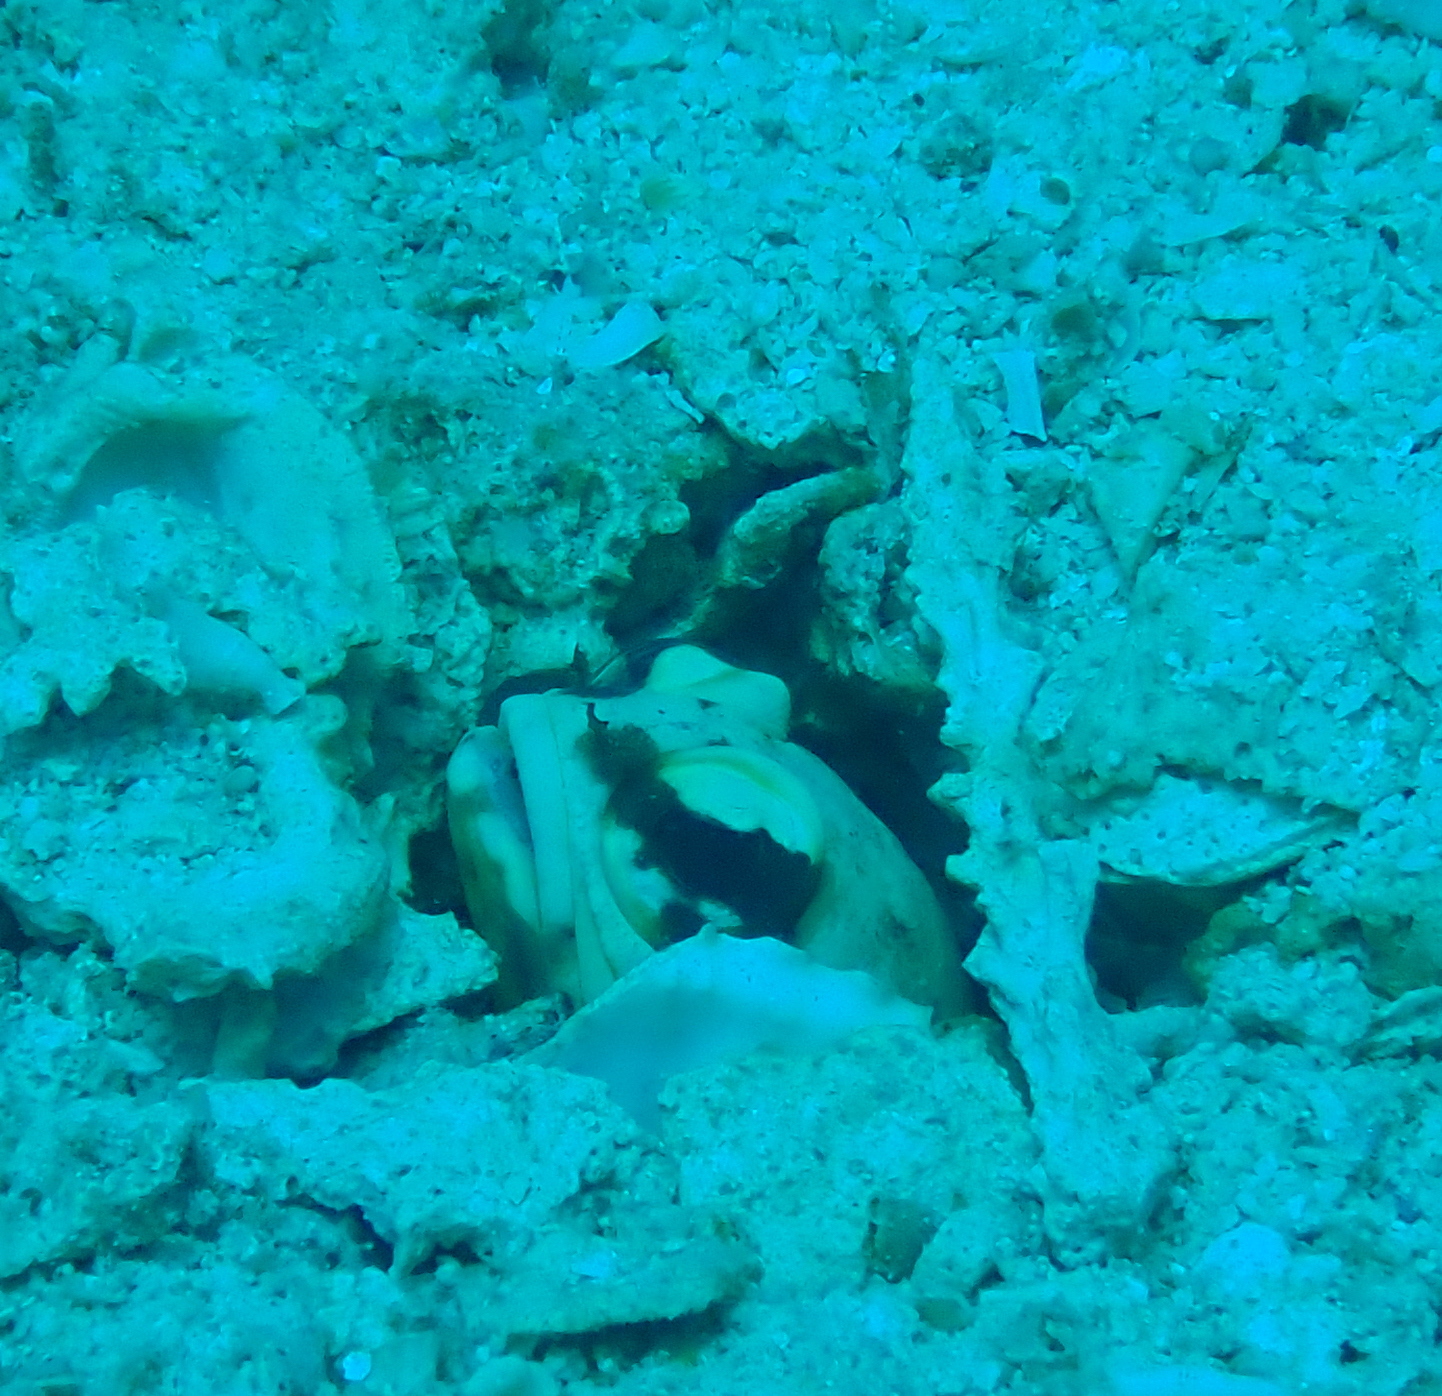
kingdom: Animalia
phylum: Chordata
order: Perciformes
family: Opistognathidae
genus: Opistognathus
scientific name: Opistognathus dendriticus
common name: Dendtric jawfish
